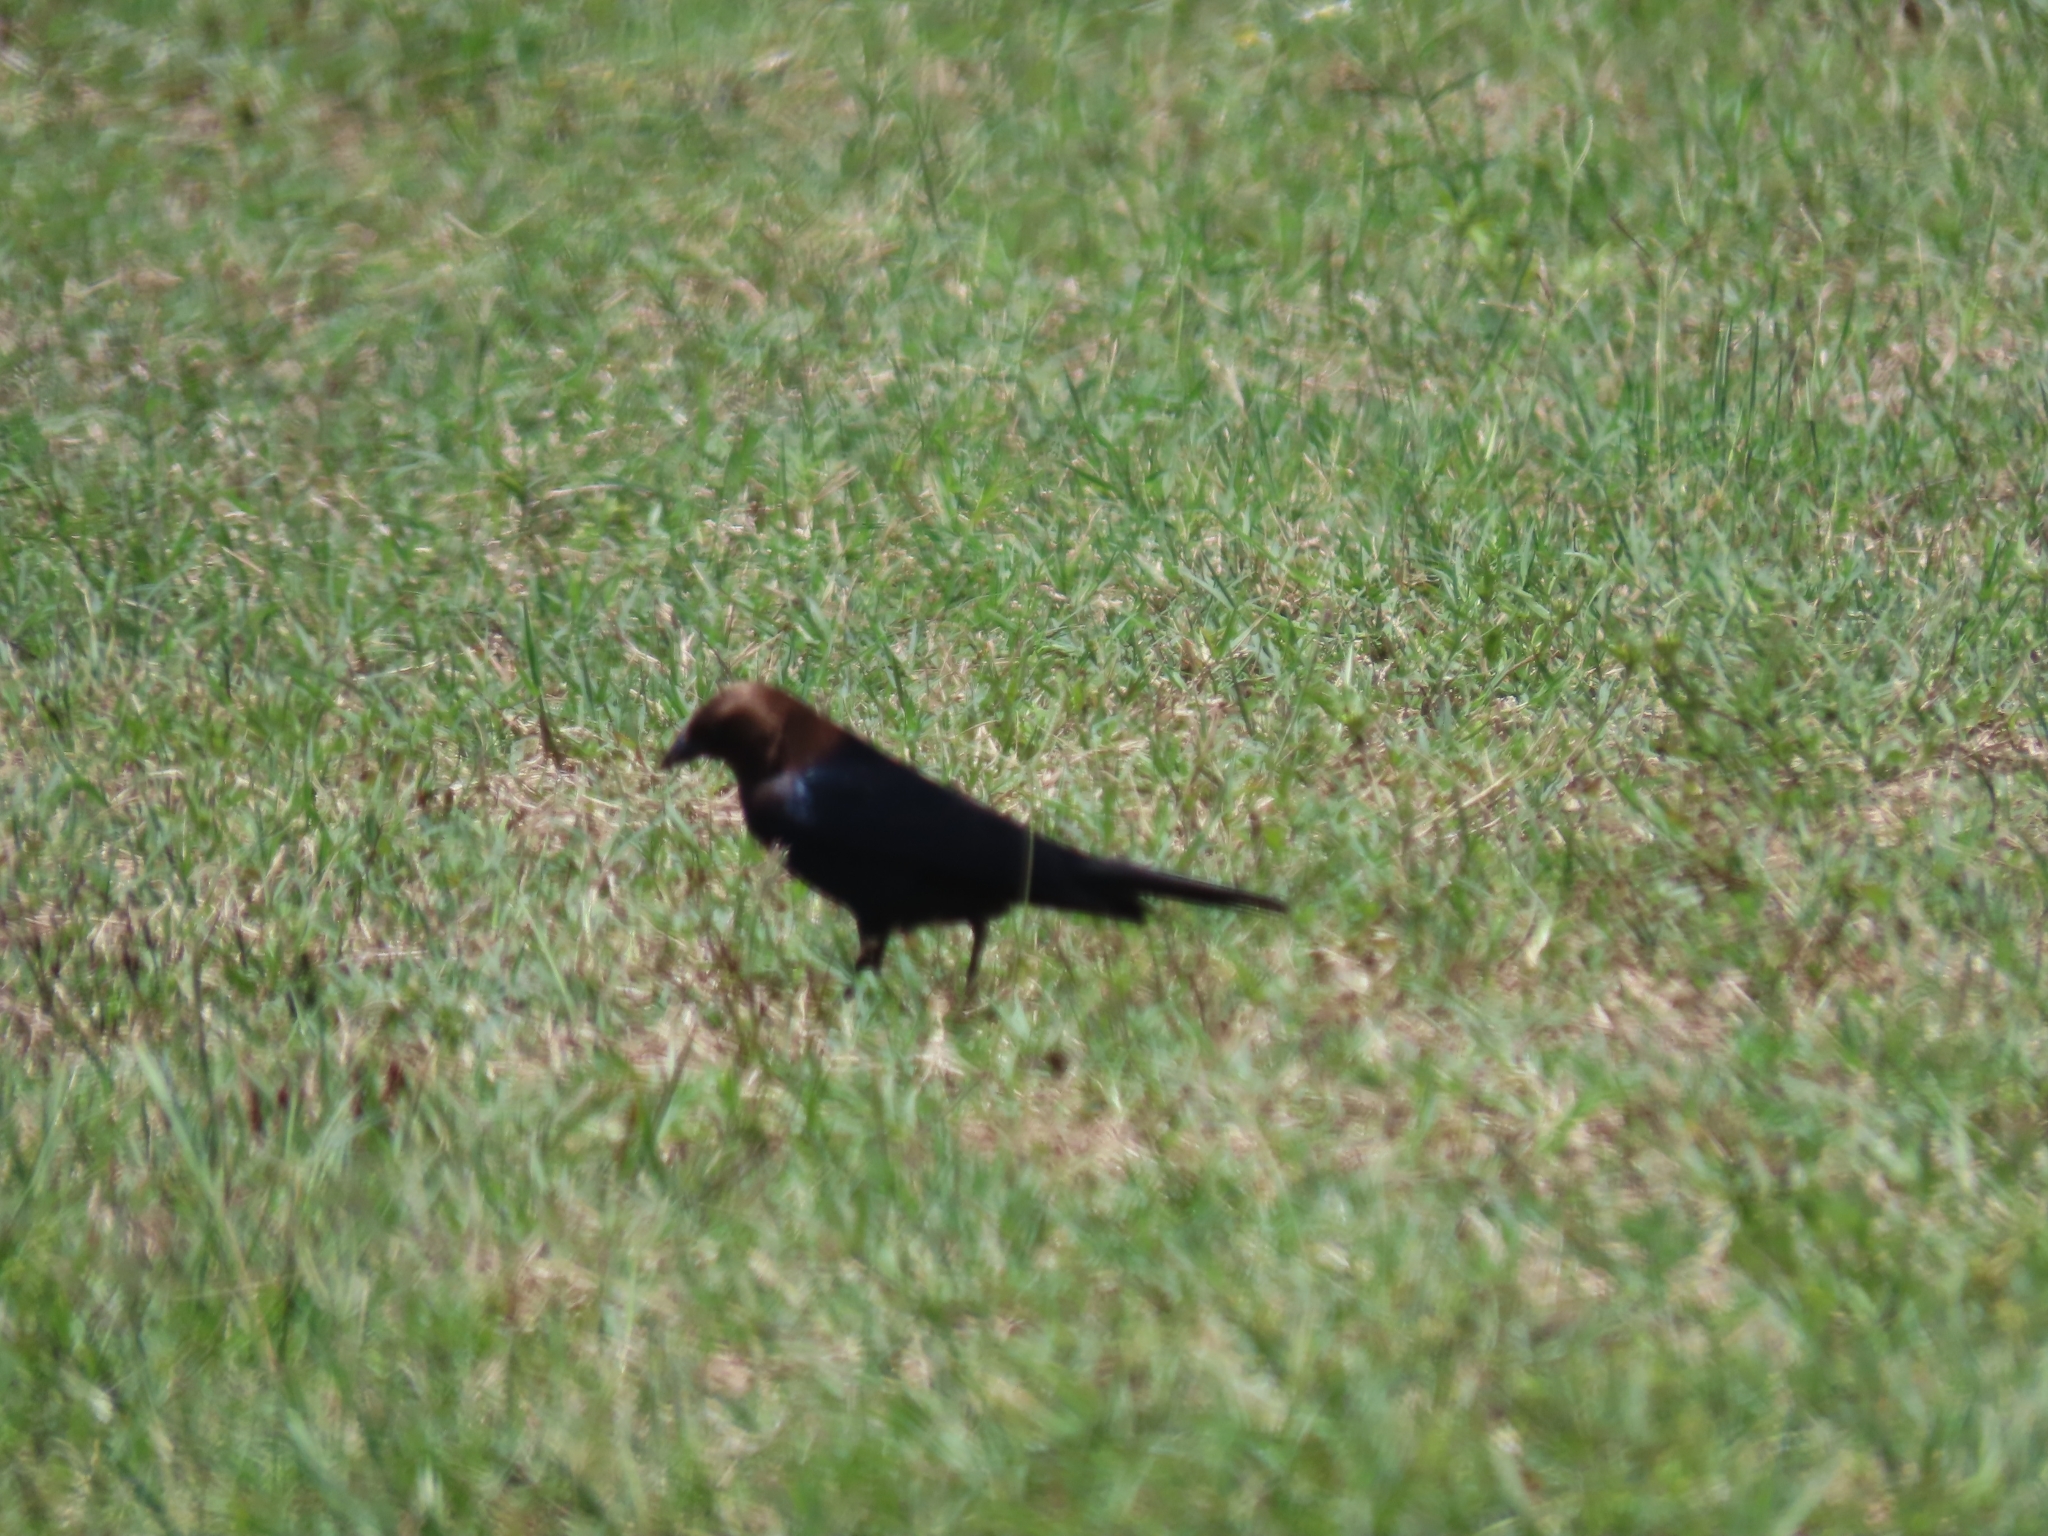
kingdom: Animalia
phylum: Chordata
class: Aves
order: Passeriformes
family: Icteridae
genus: Molothrus
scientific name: Molothrus ater
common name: Brown-headed cowbird
